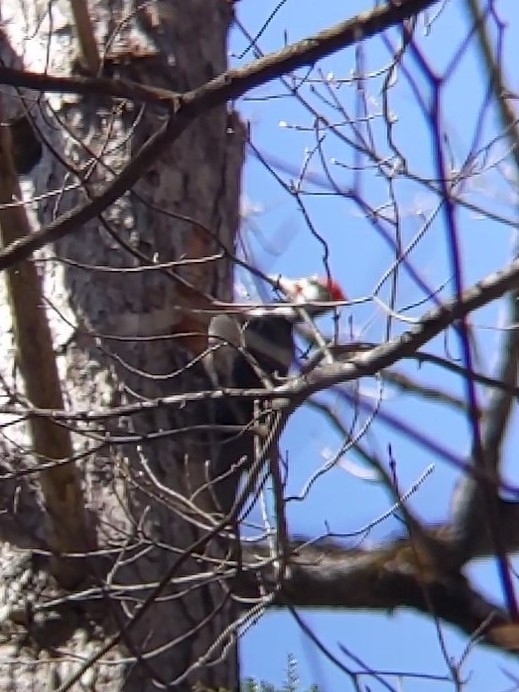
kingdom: Animalia
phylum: Chordata
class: Aves
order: Piciformes
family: Picidae
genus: Dryocopus
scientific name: Dryocopus pileatus
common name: Pileated woodpecker
